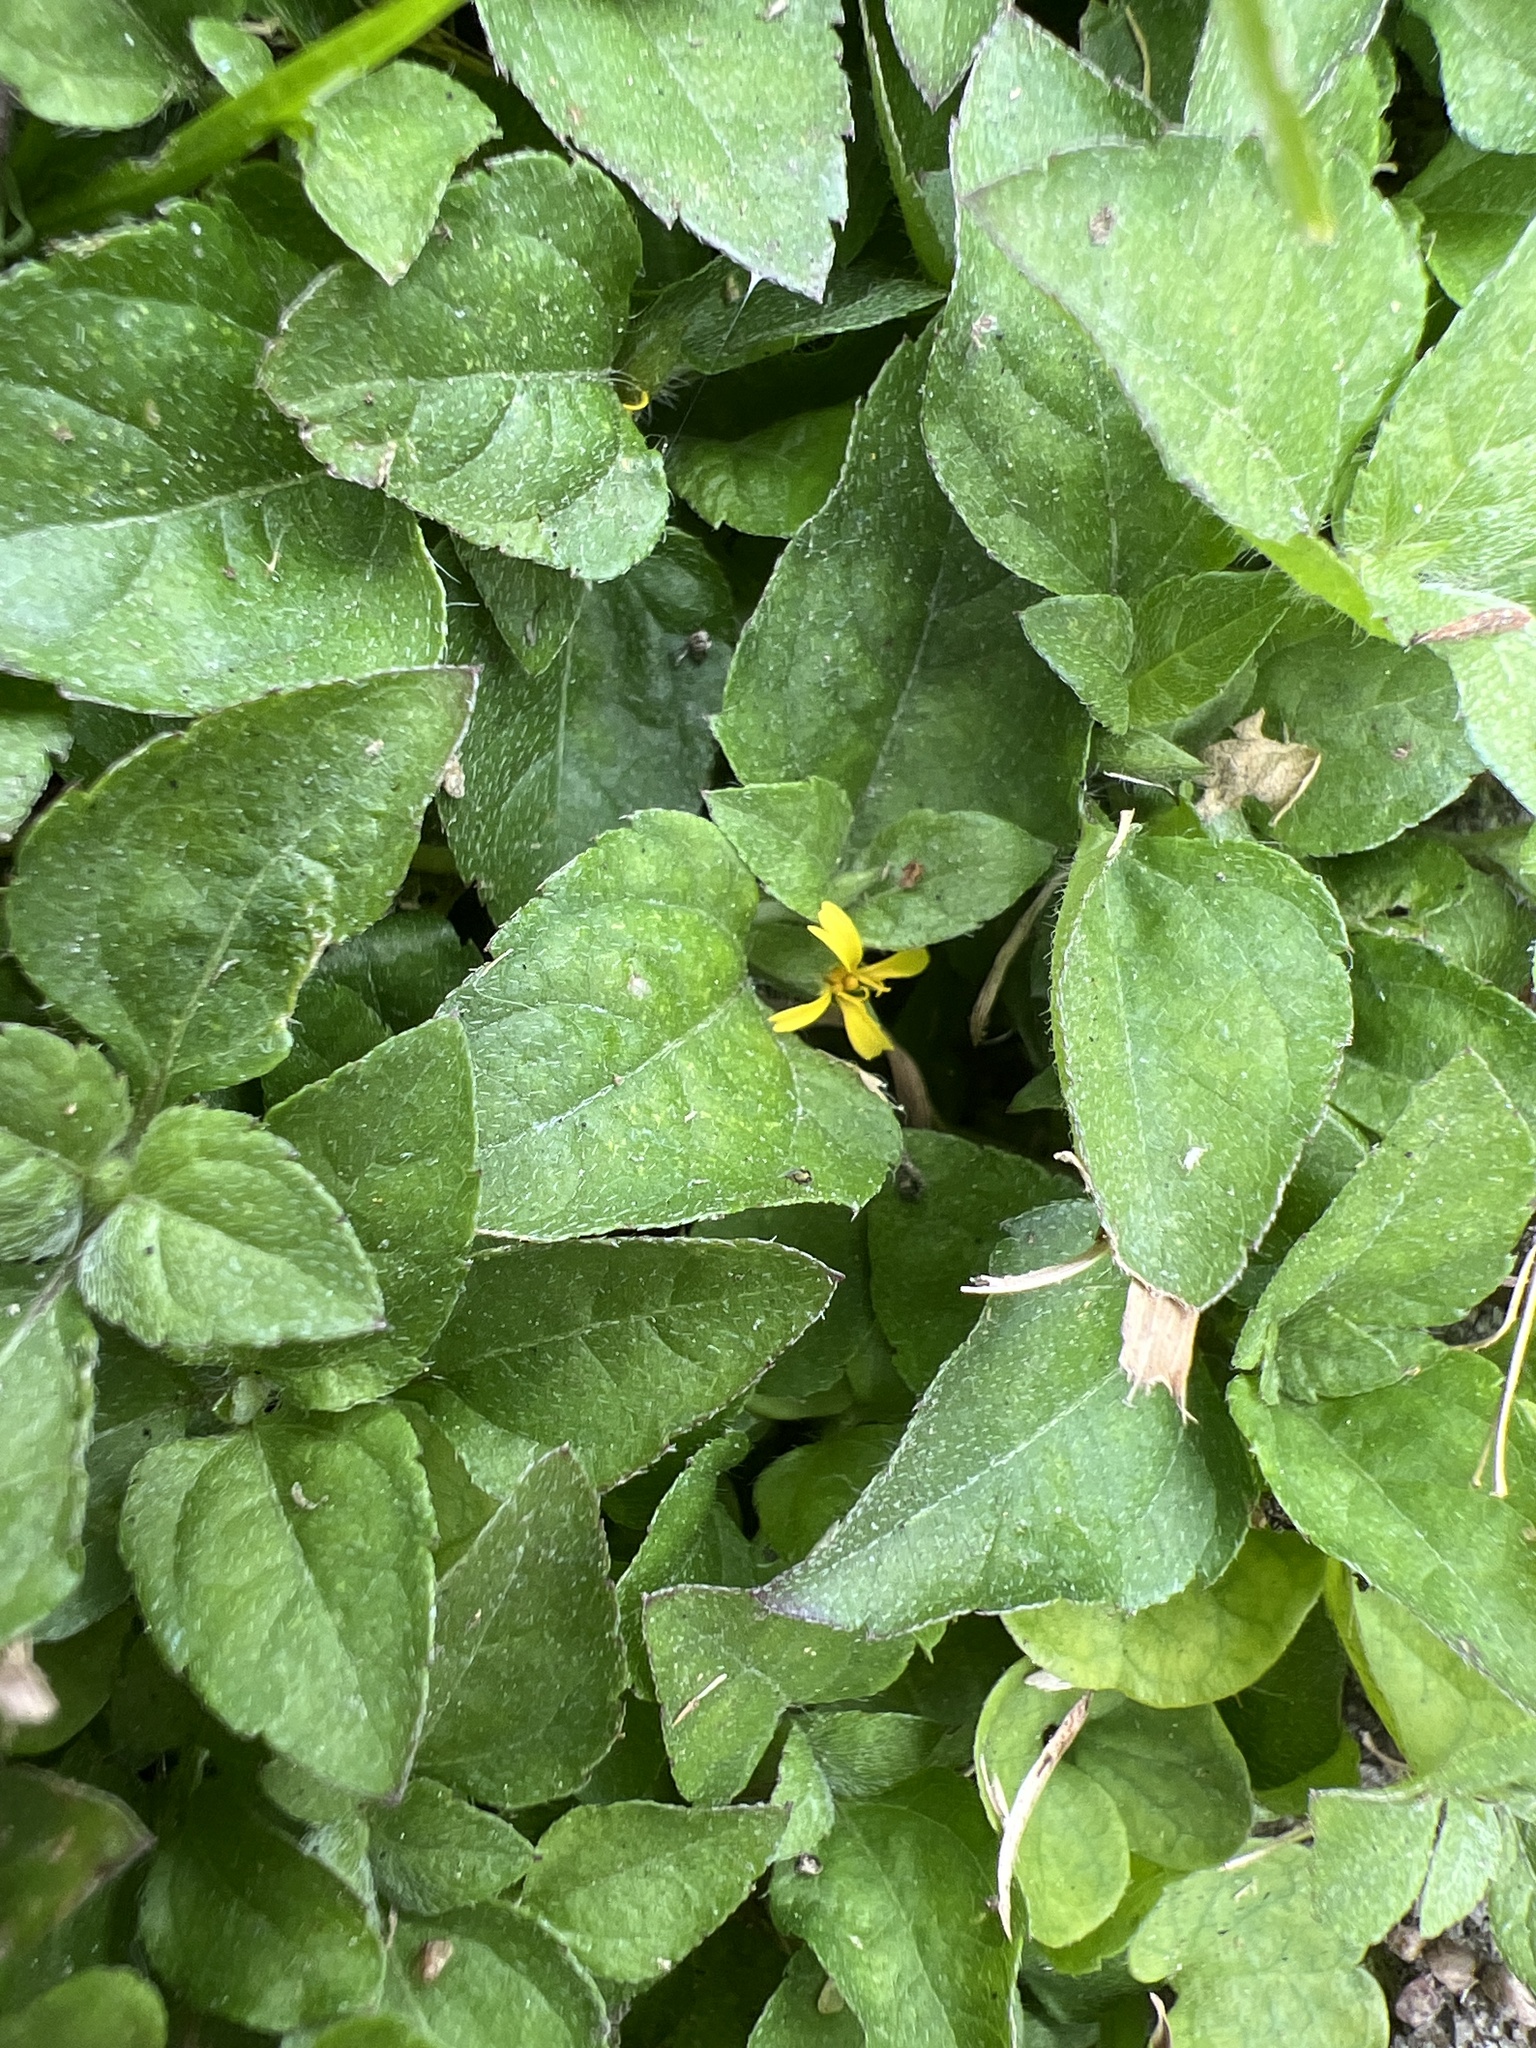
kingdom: Plantae
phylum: Tracheophyta
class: Magnoliopsida
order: Asterales
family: Asteraceae
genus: Calyptocarpus
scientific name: Calyptocarpus vialis
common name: Straggler daisy
